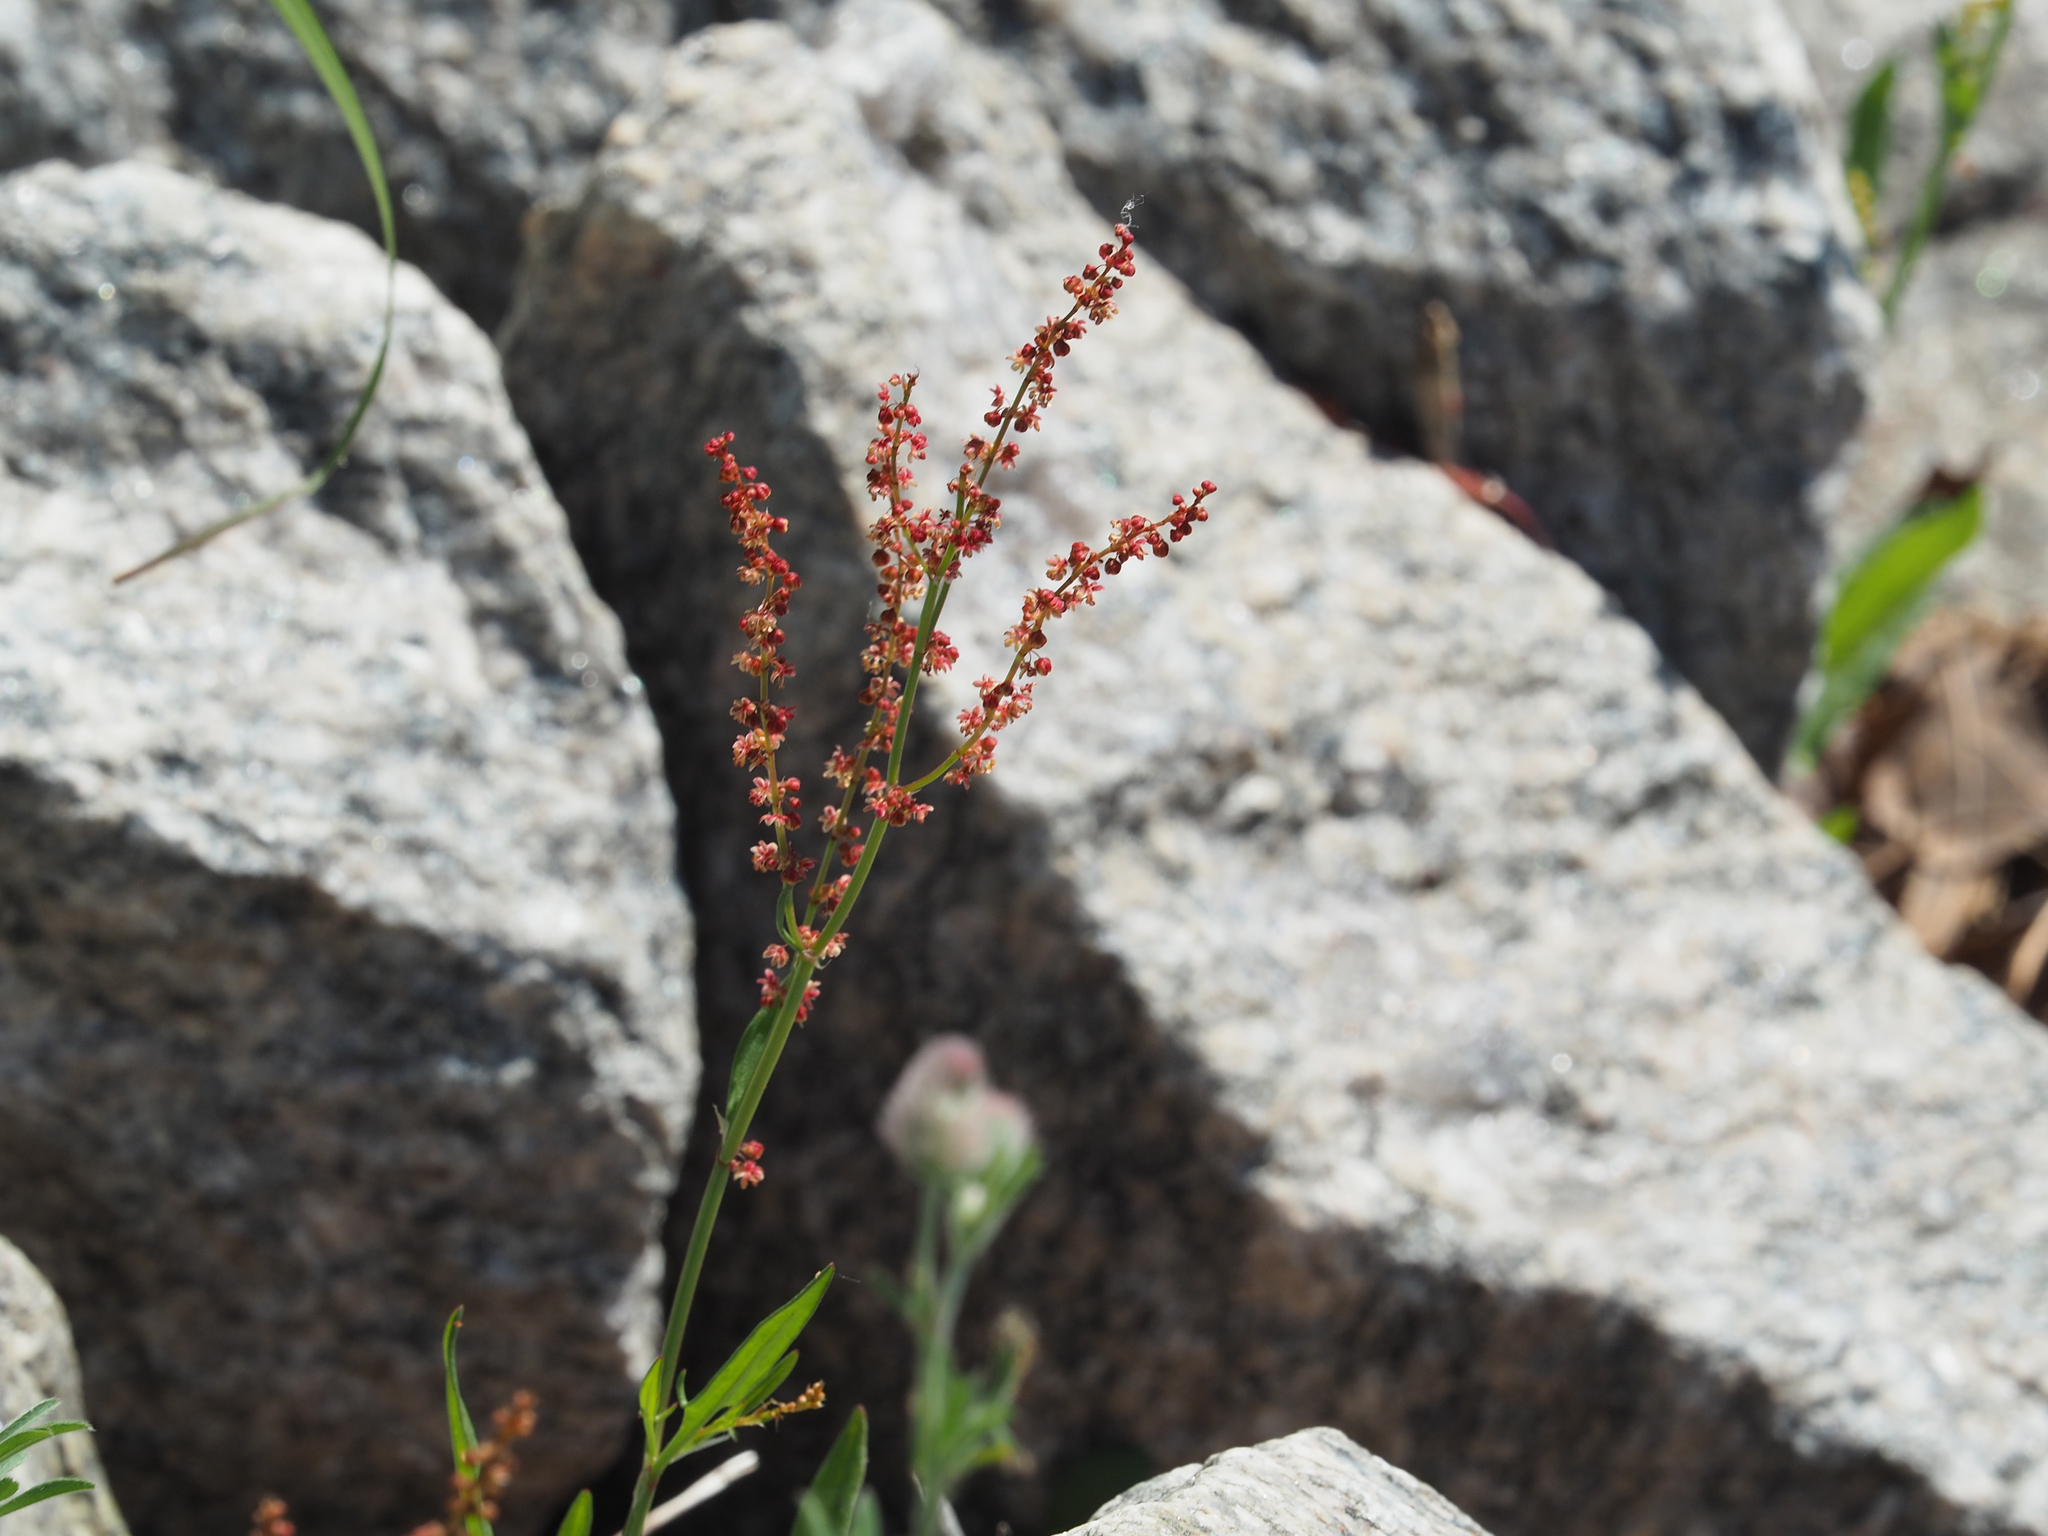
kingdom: Plantae
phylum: Tracheophyta
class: Magnoliopsida
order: Caryophyllales
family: Polygonaceae
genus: Rumex
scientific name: Rumex acetosella
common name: Common sheep sorrel
